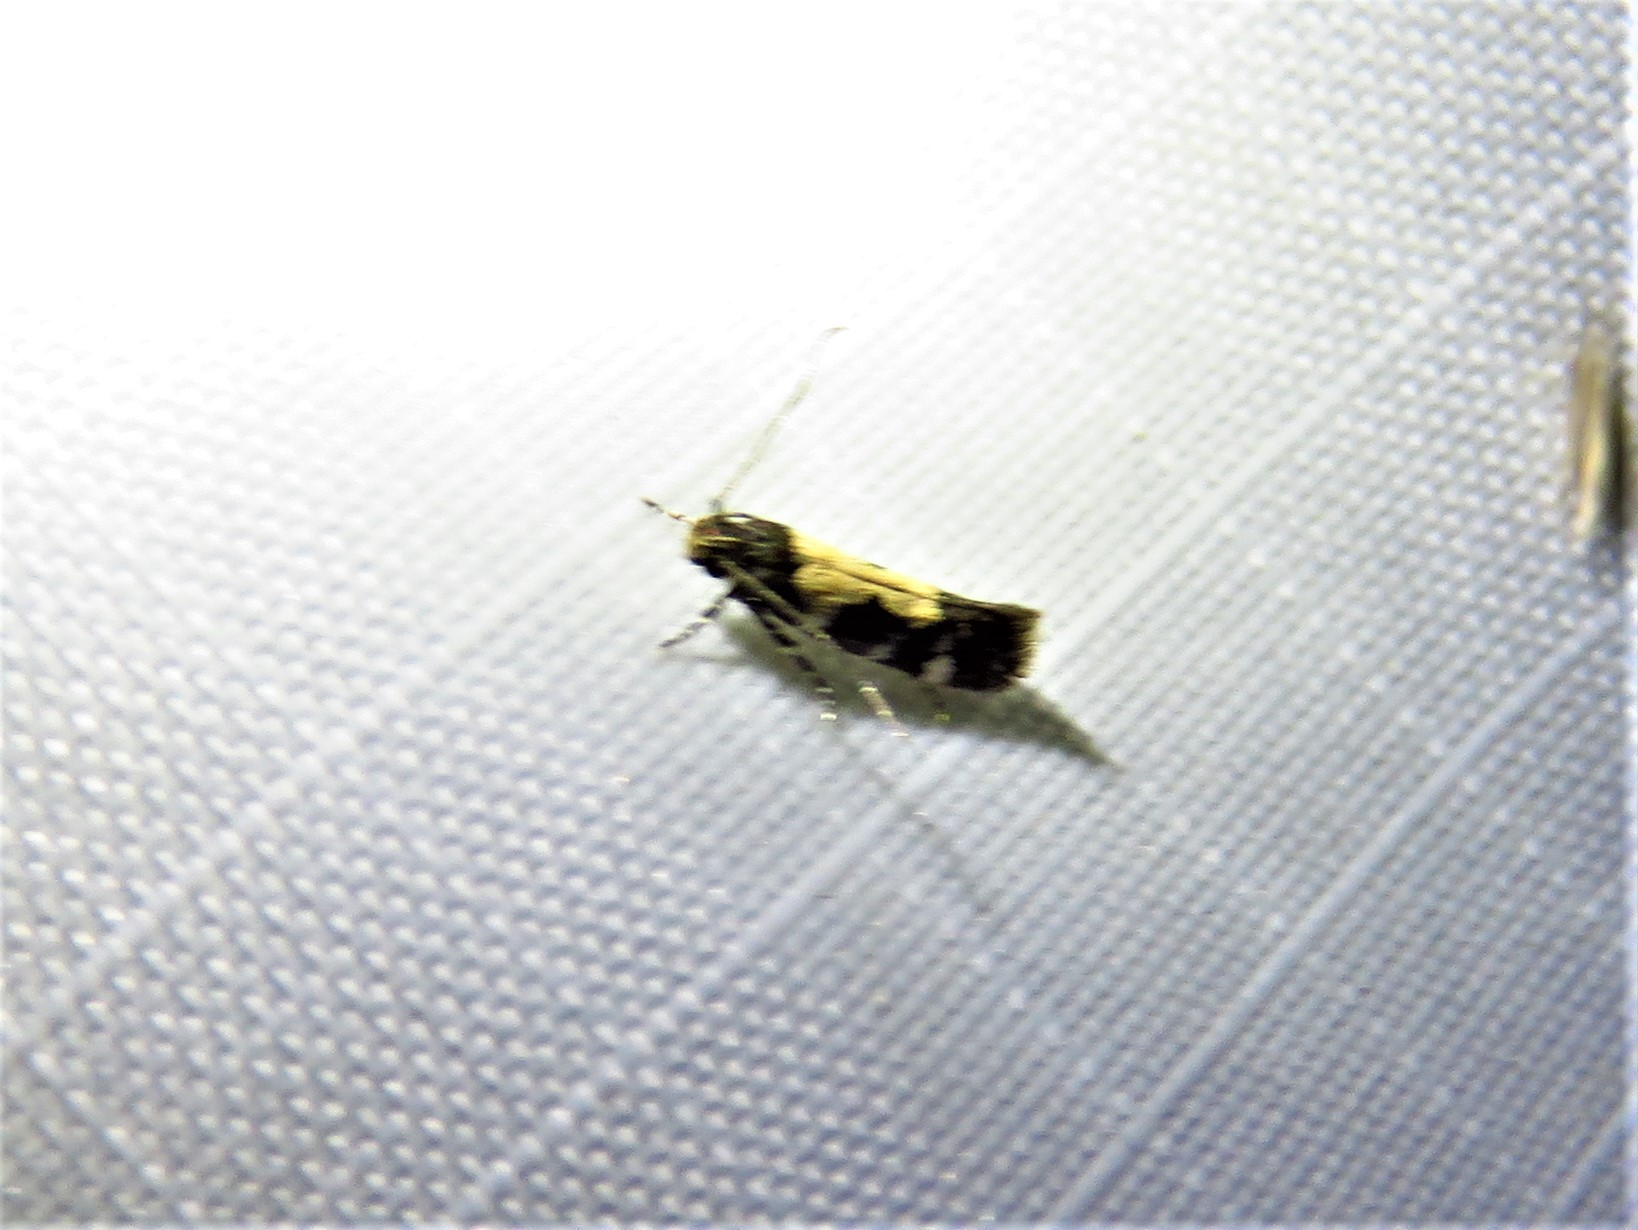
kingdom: Animalia
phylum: Arthropoda
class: Insecta
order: Lepidoptera
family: Gelechiidae
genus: Stegasta
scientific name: Stegasta bosqueella
